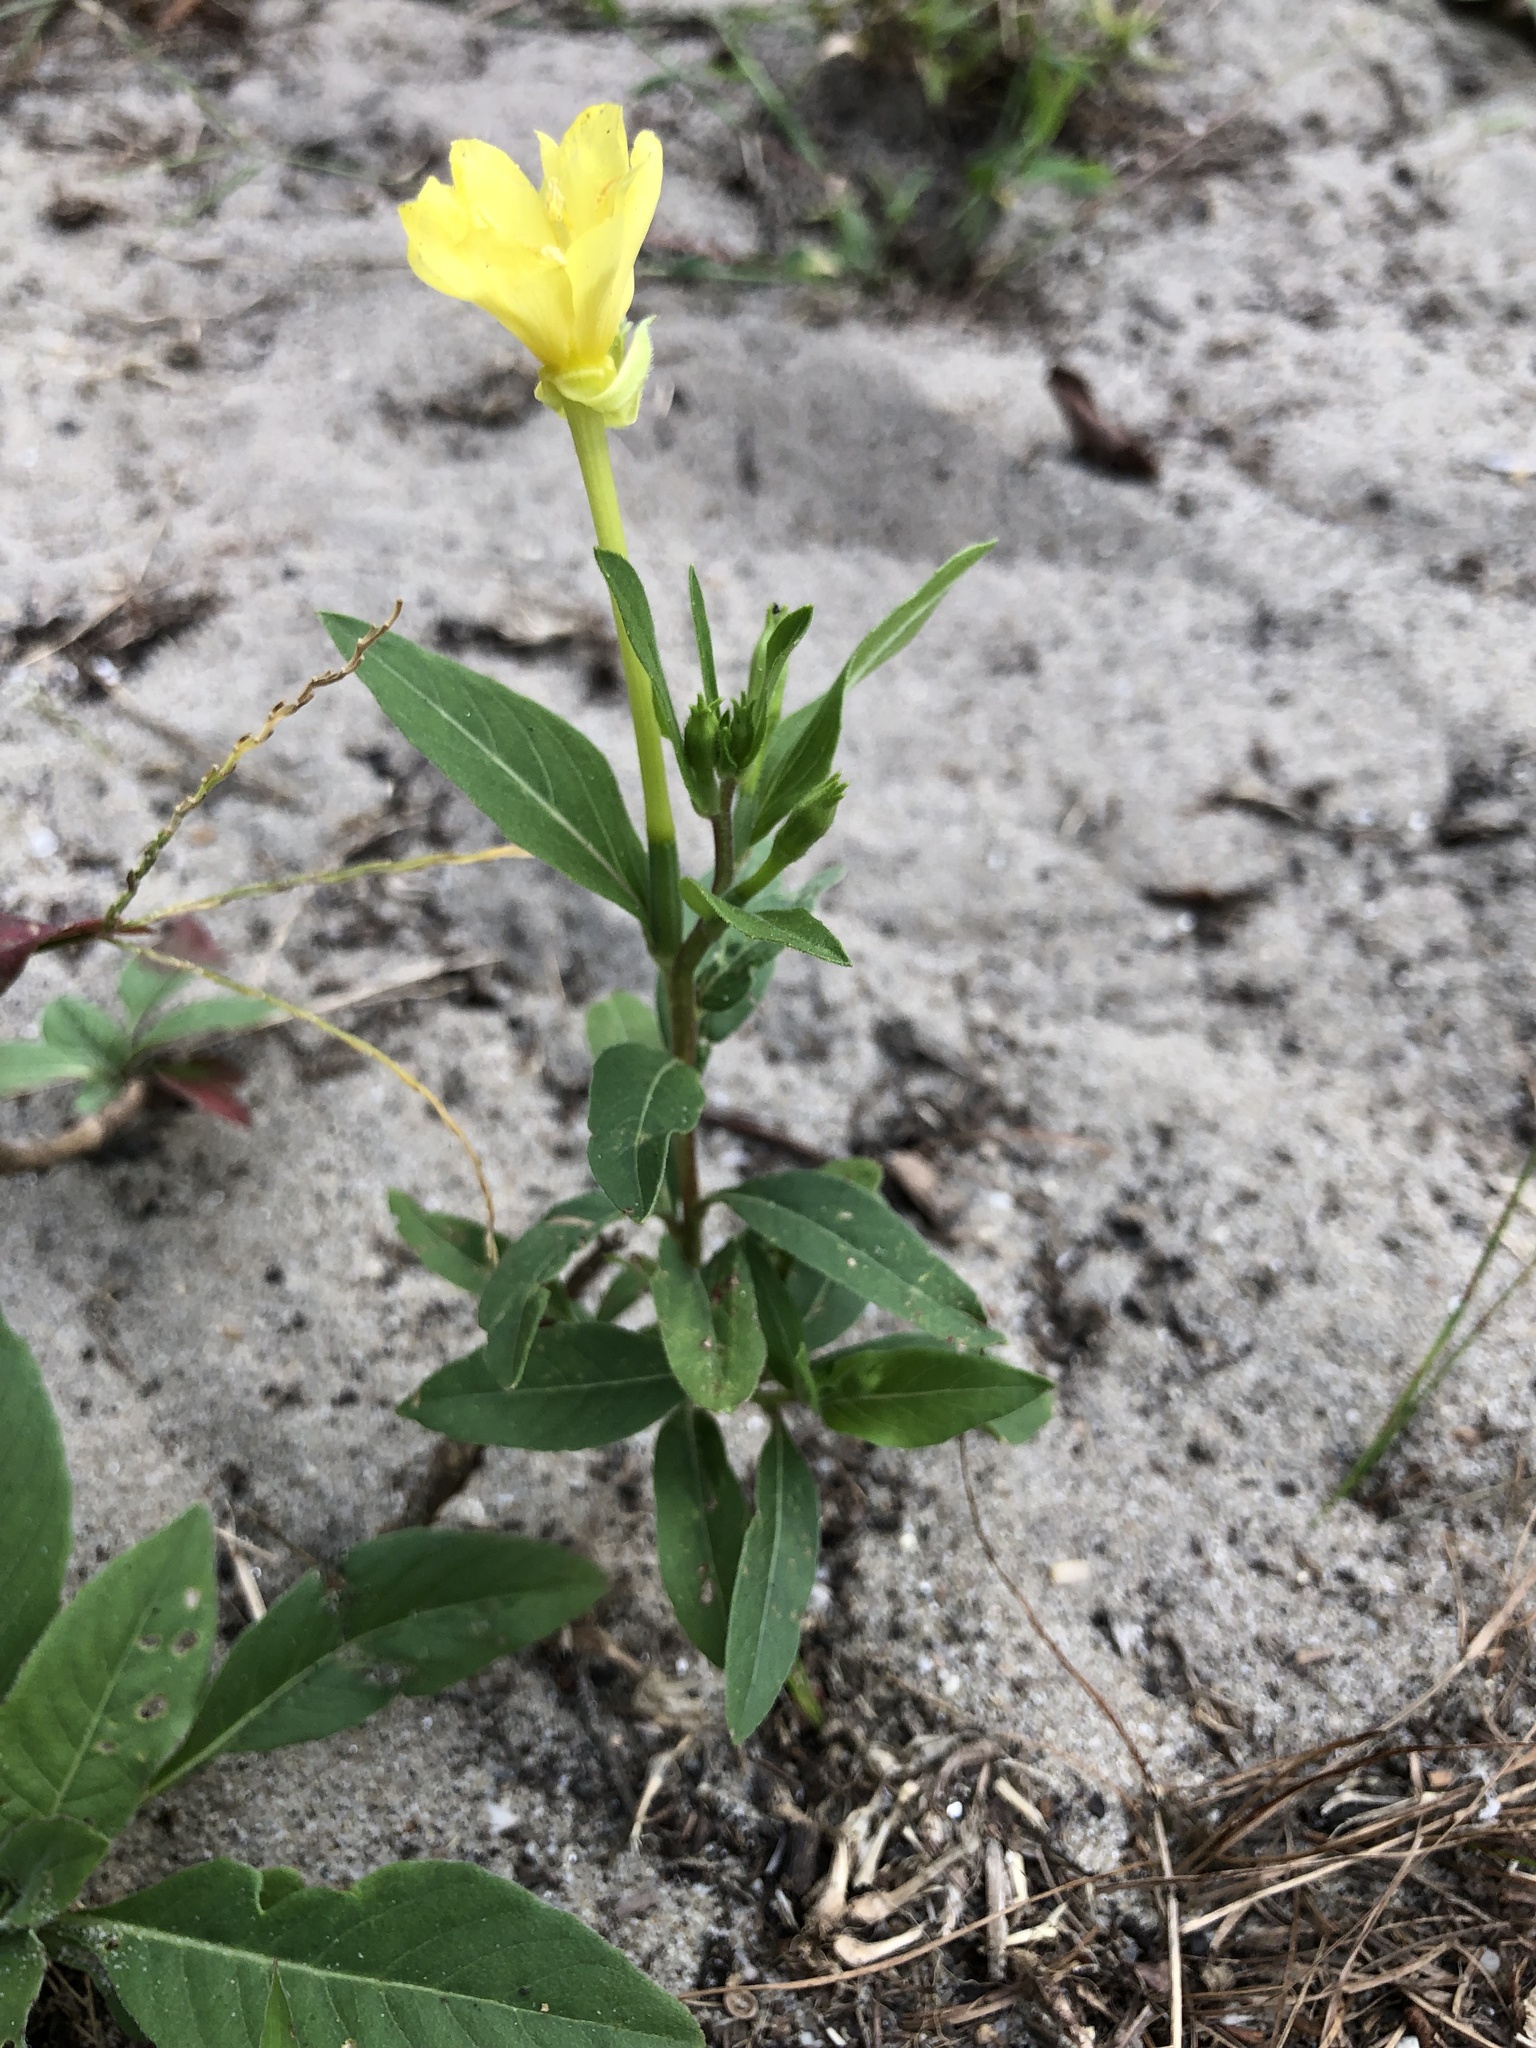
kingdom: Plantae
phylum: Tracheophyta
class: Magnoliopsida
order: Myrtales
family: Onagraceae
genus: Oenothera
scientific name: Oenothera biennis
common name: Common evening-primrose
